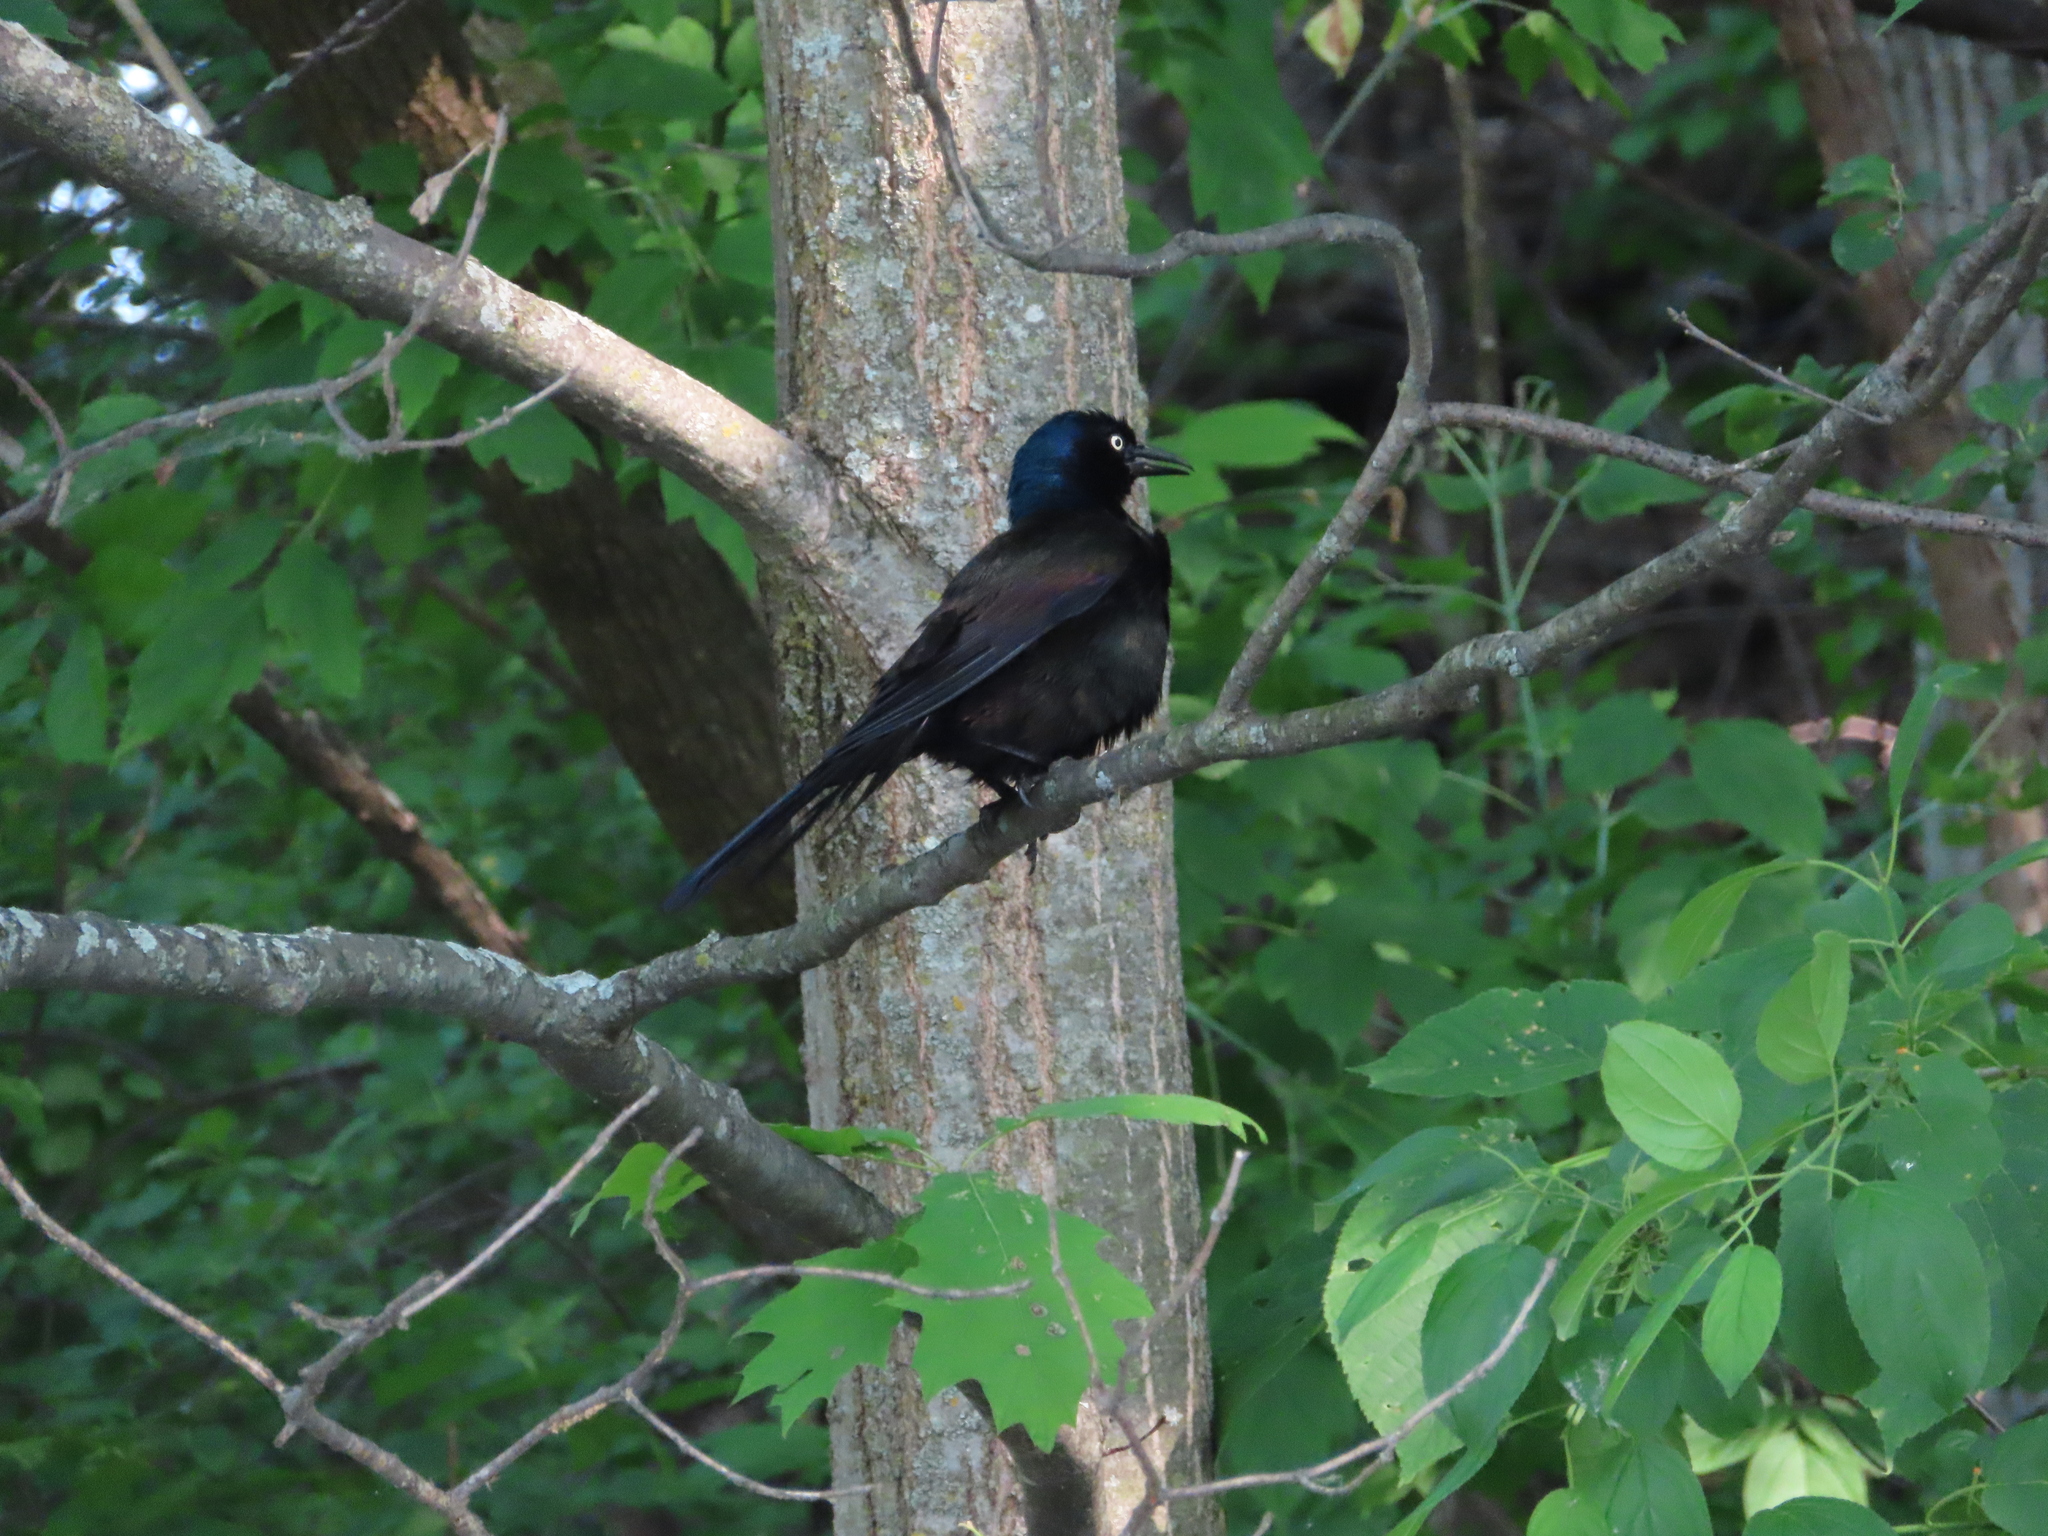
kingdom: Animalia
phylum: Chordata
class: Aves
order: Passeriformes
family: Icteridae
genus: Quiscalus
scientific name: Quiscalus quiscula
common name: Common grackle
